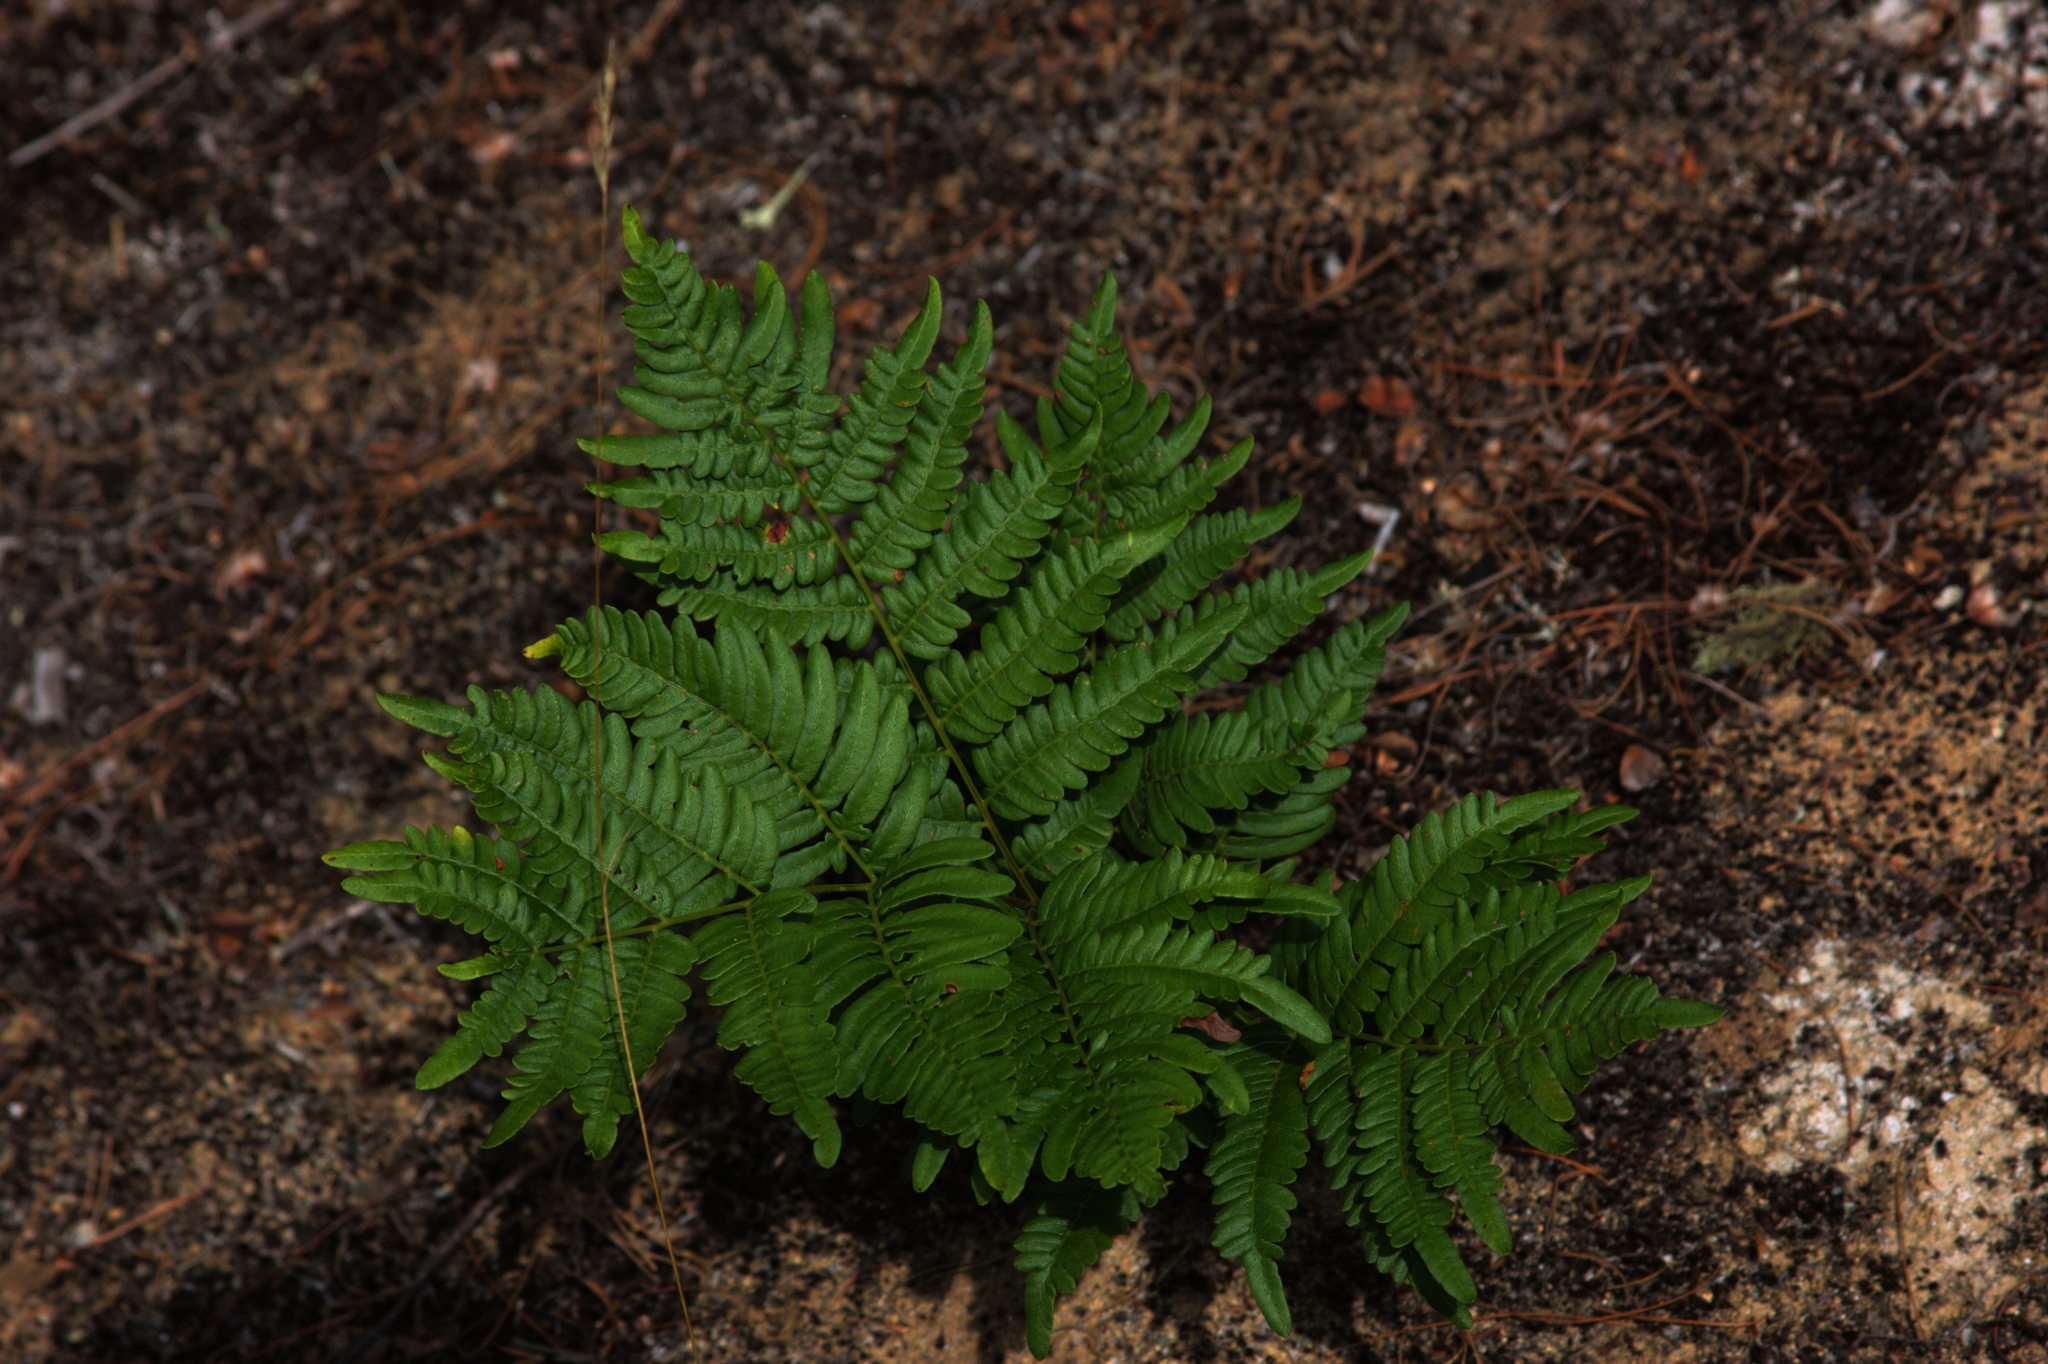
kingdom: Plantae
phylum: Tracheophyta
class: Polypodiopsida
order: Polypodiales
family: Dennstaedtiaceae
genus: Pteridium
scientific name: Pteridium aquilinum
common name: Bracken
